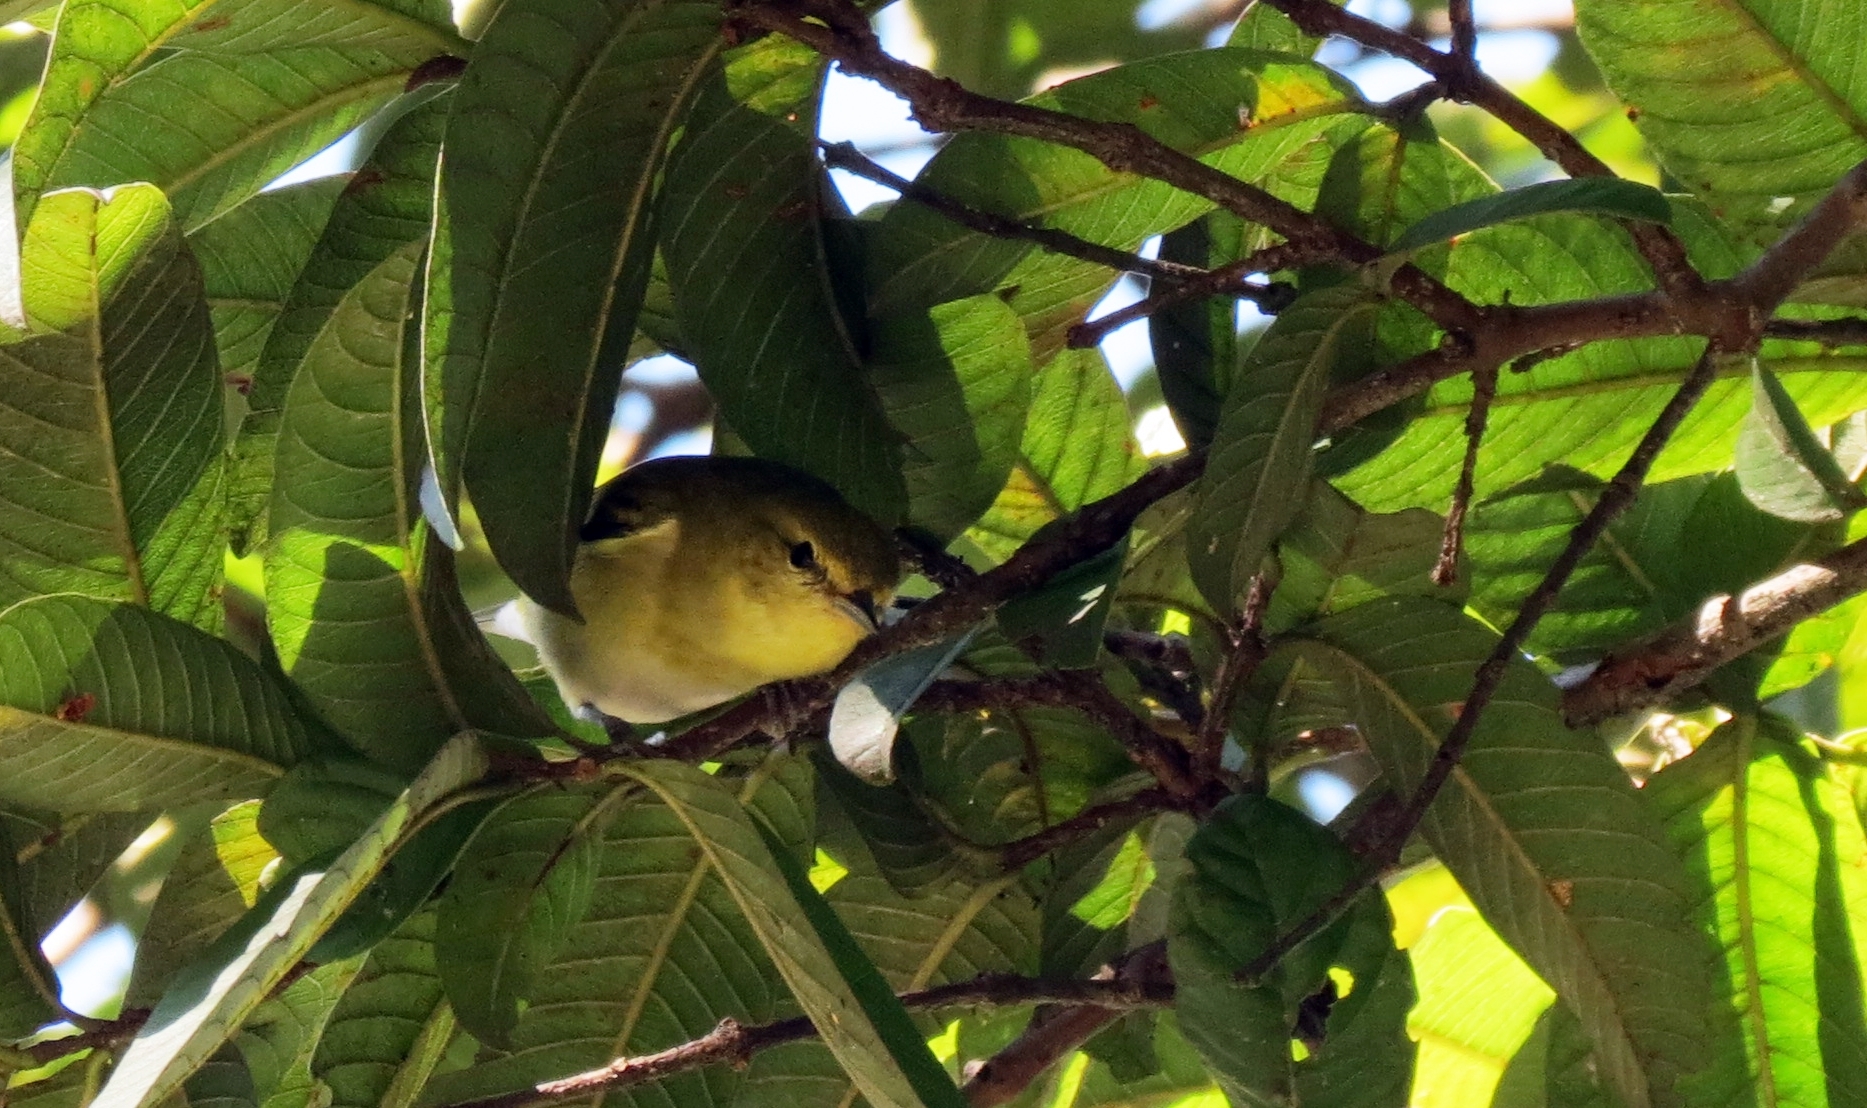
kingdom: Animalia
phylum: Chordata
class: Aves
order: Passeriformes
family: Parulidae
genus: Setophaga
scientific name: Setophaga castanea
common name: Bay-breasted warbler
